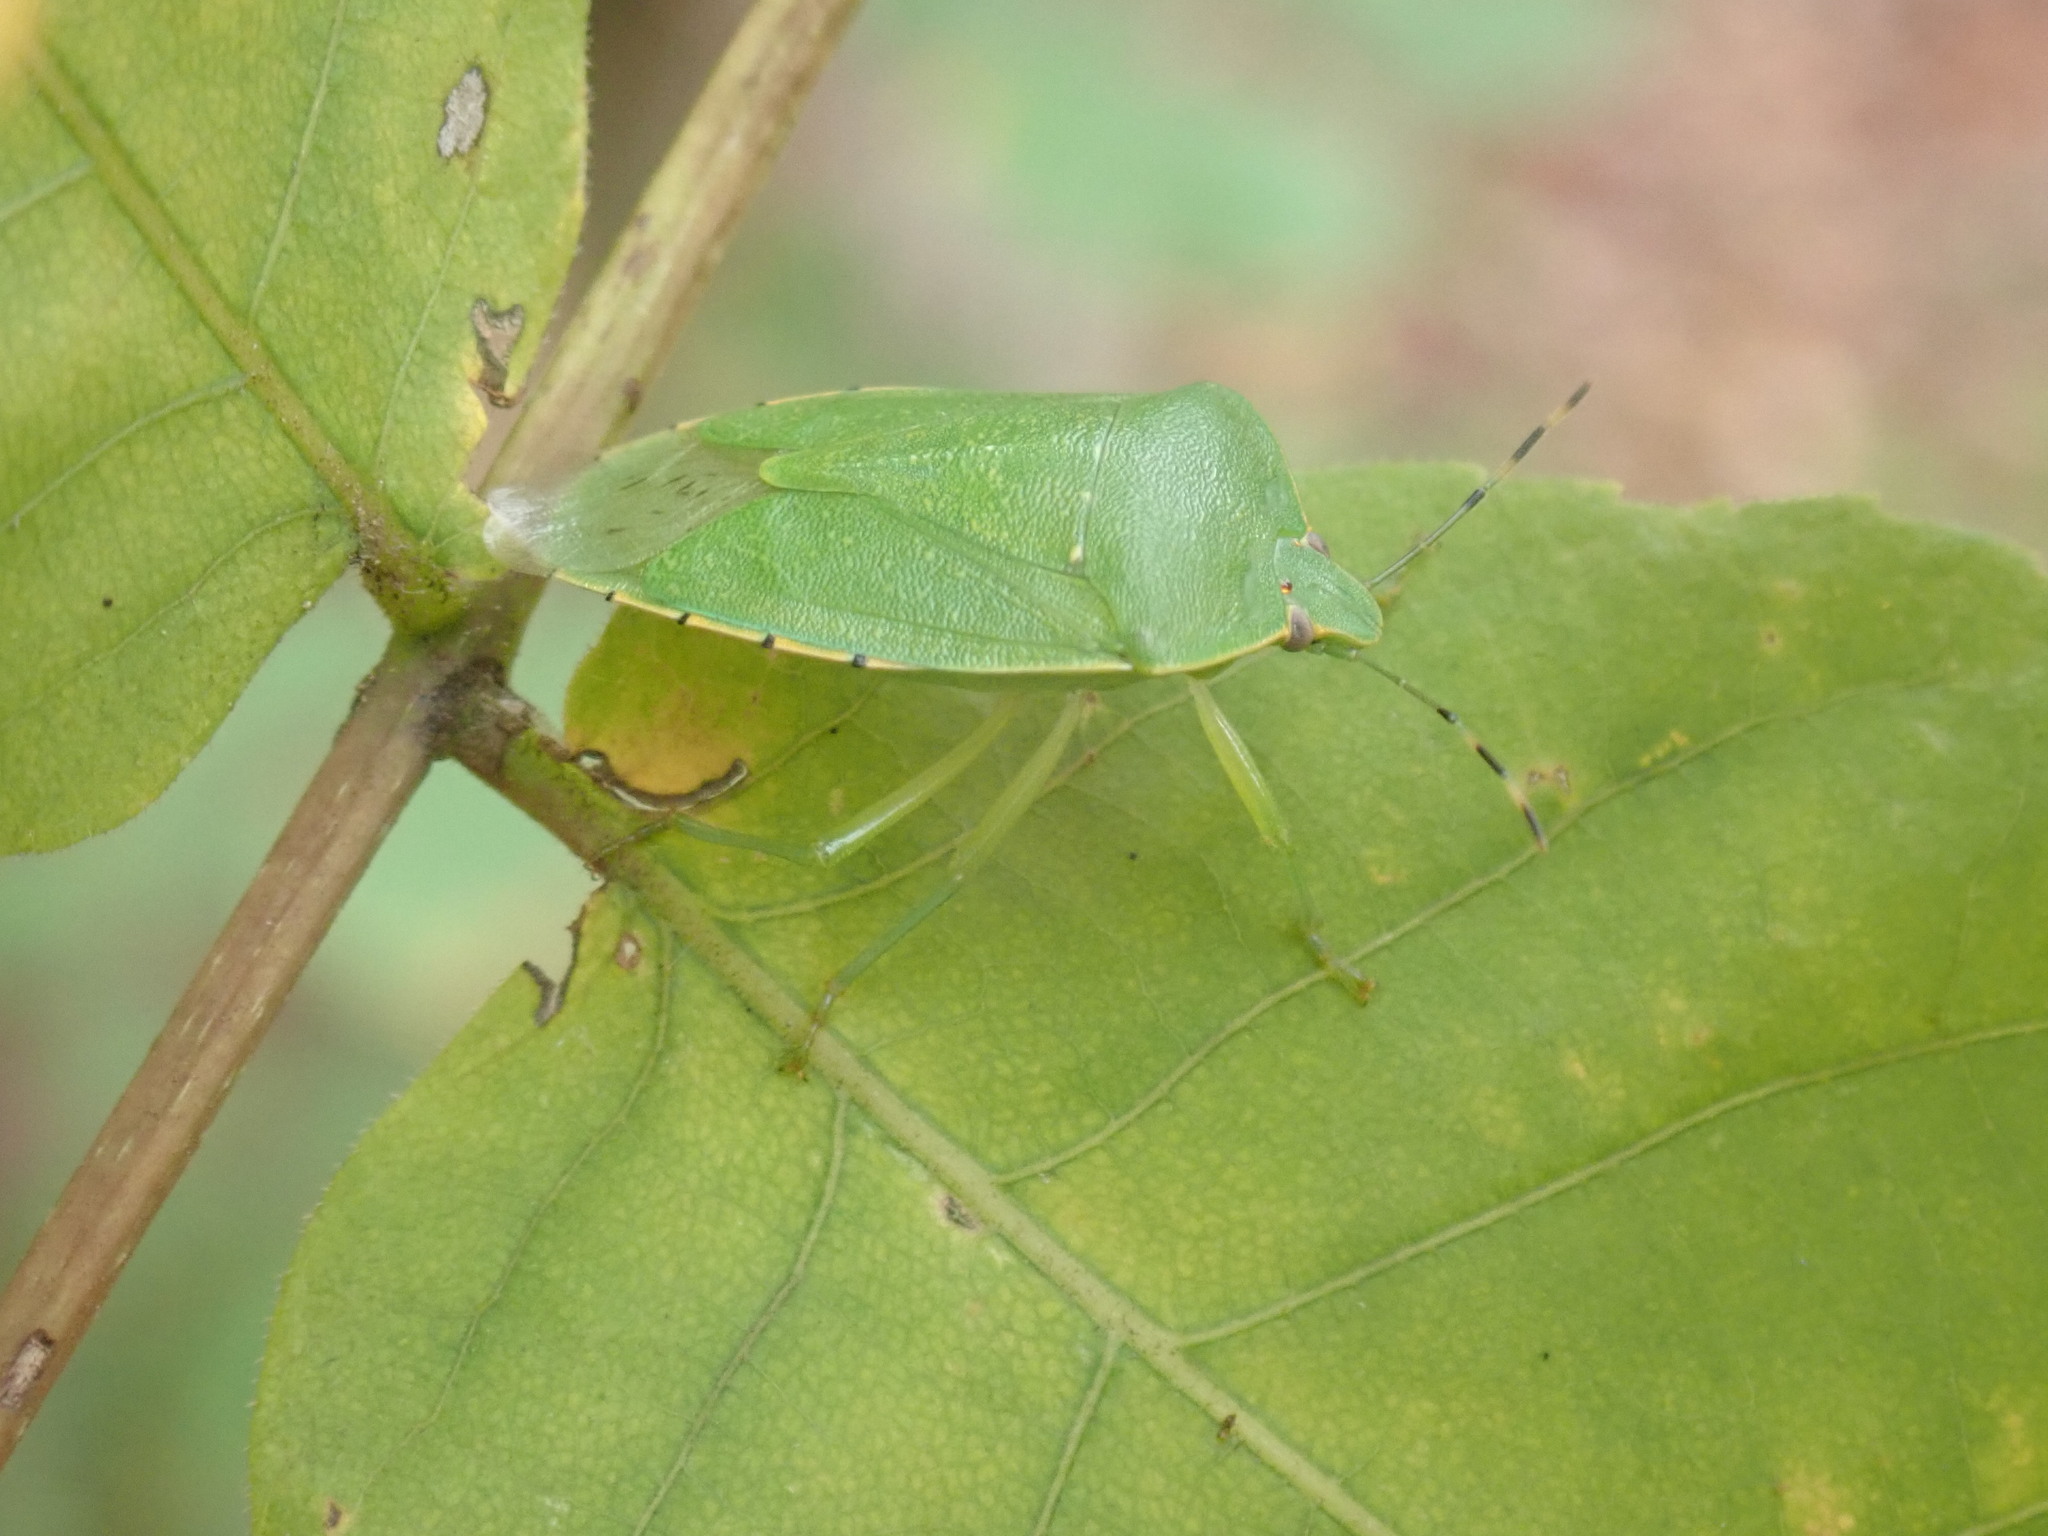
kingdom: Animalia
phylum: Arthropoda
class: Insecta
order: Hemiptera
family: Pentatomidae
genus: Chinavia
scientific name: Chinavia hilaris
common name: Green stink bug
